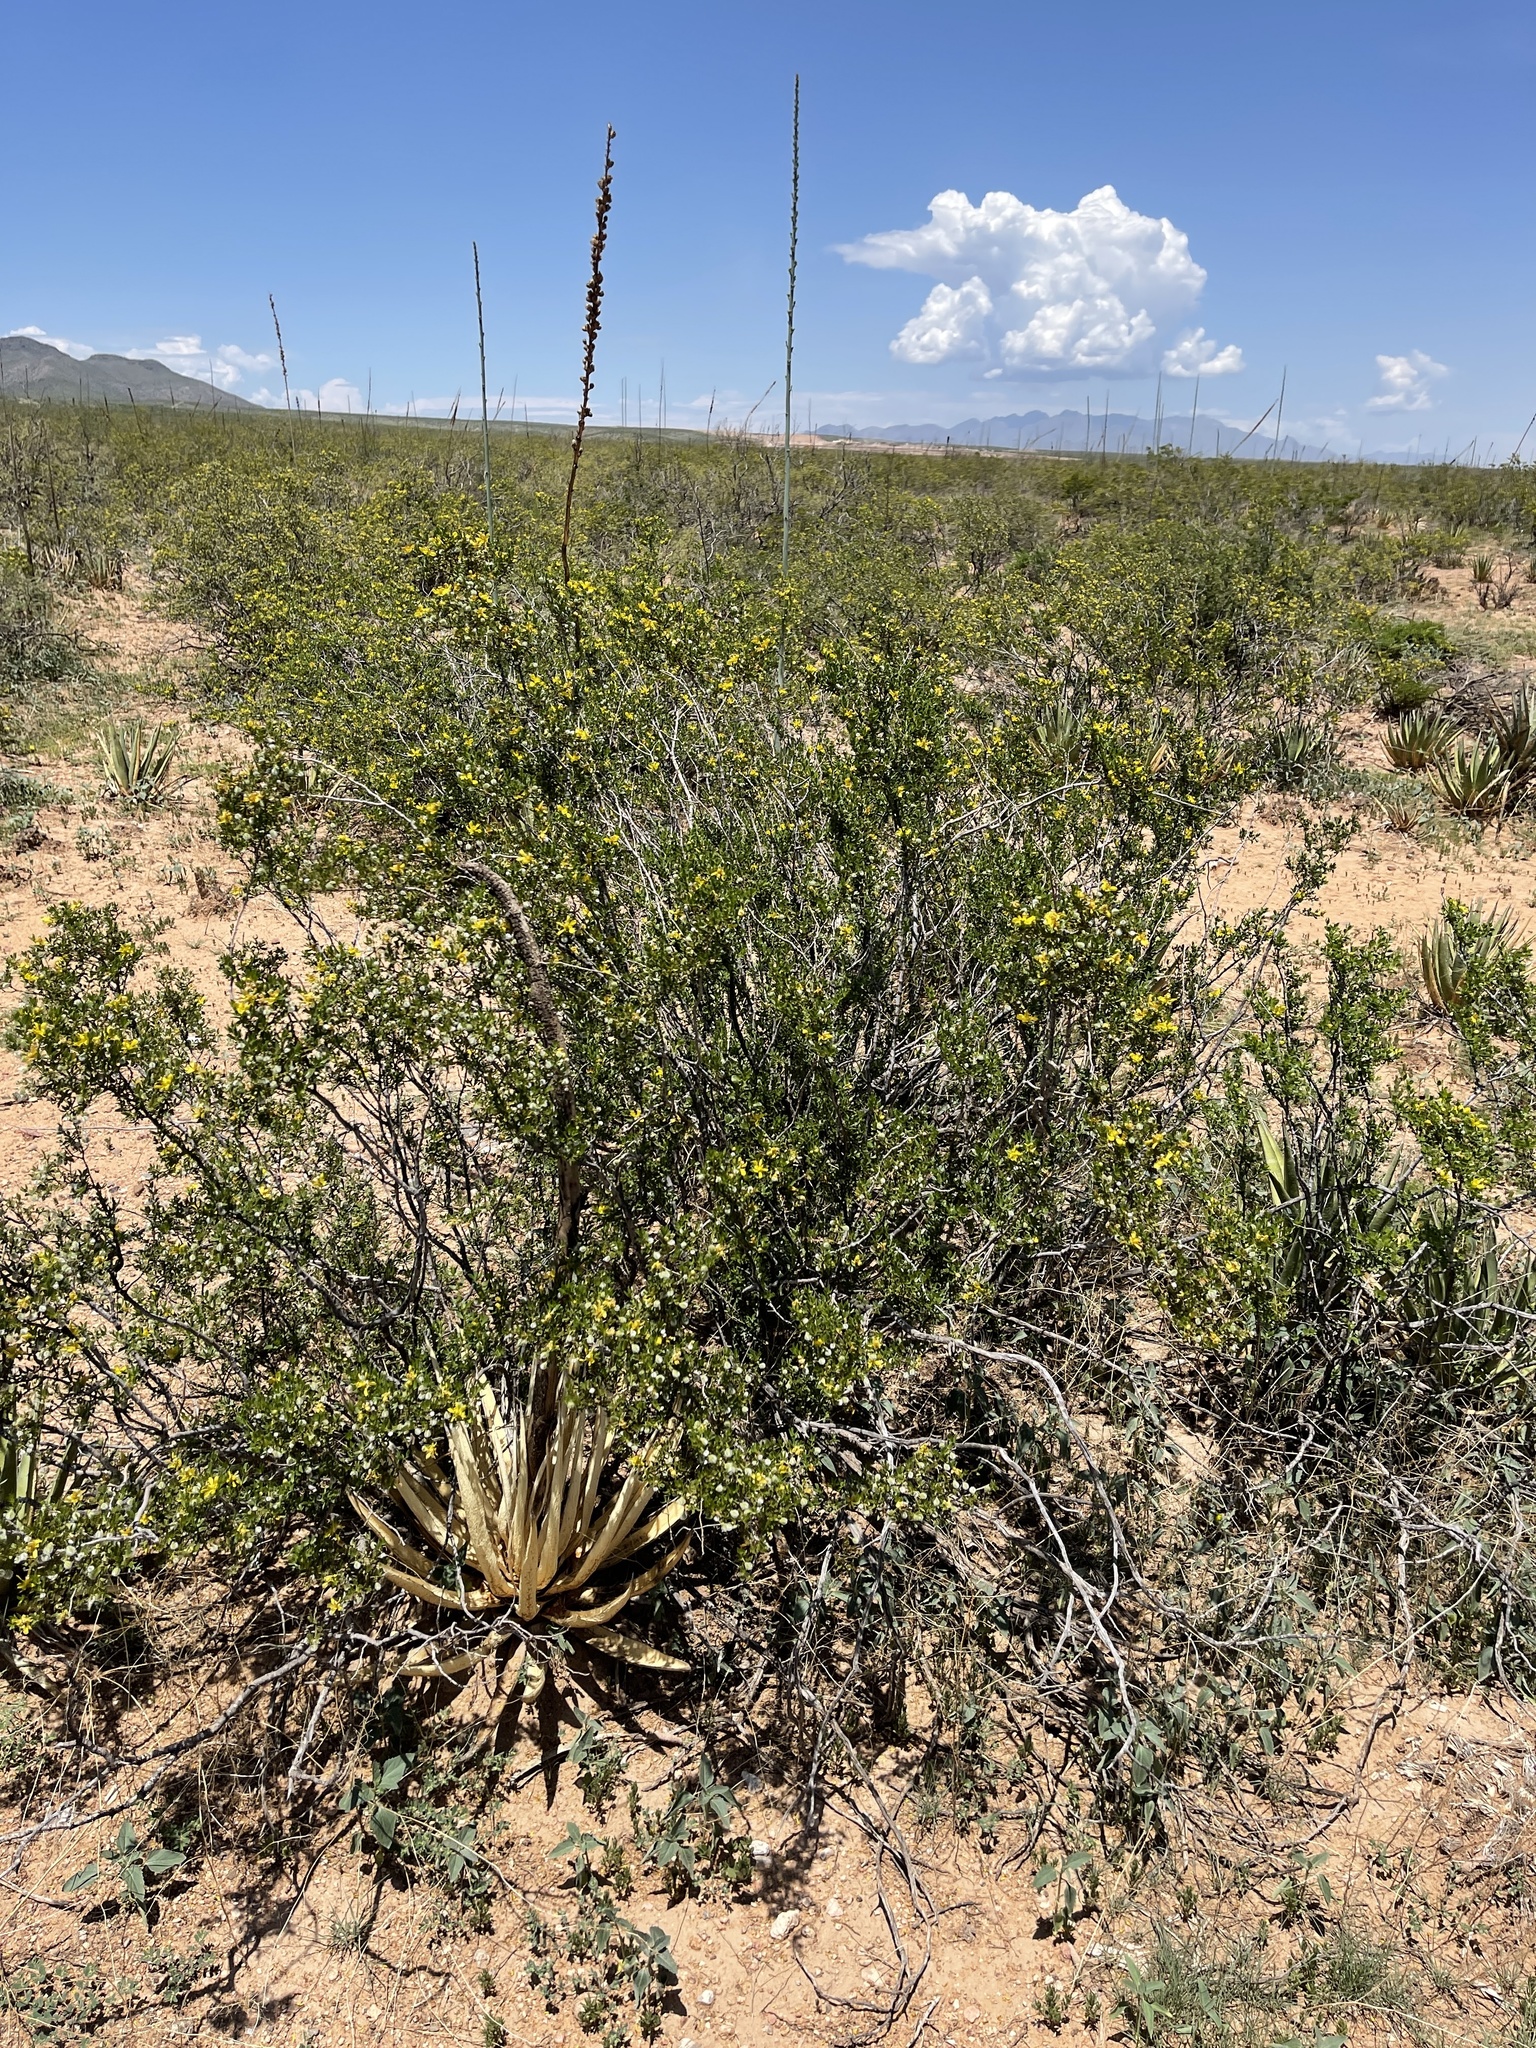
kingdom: Plantae
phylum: Tracheophyta
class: Magnoliopsida
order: Zygophyllales
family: Zygophyllaceae
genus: Larrea
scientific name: Larrea tridentata
